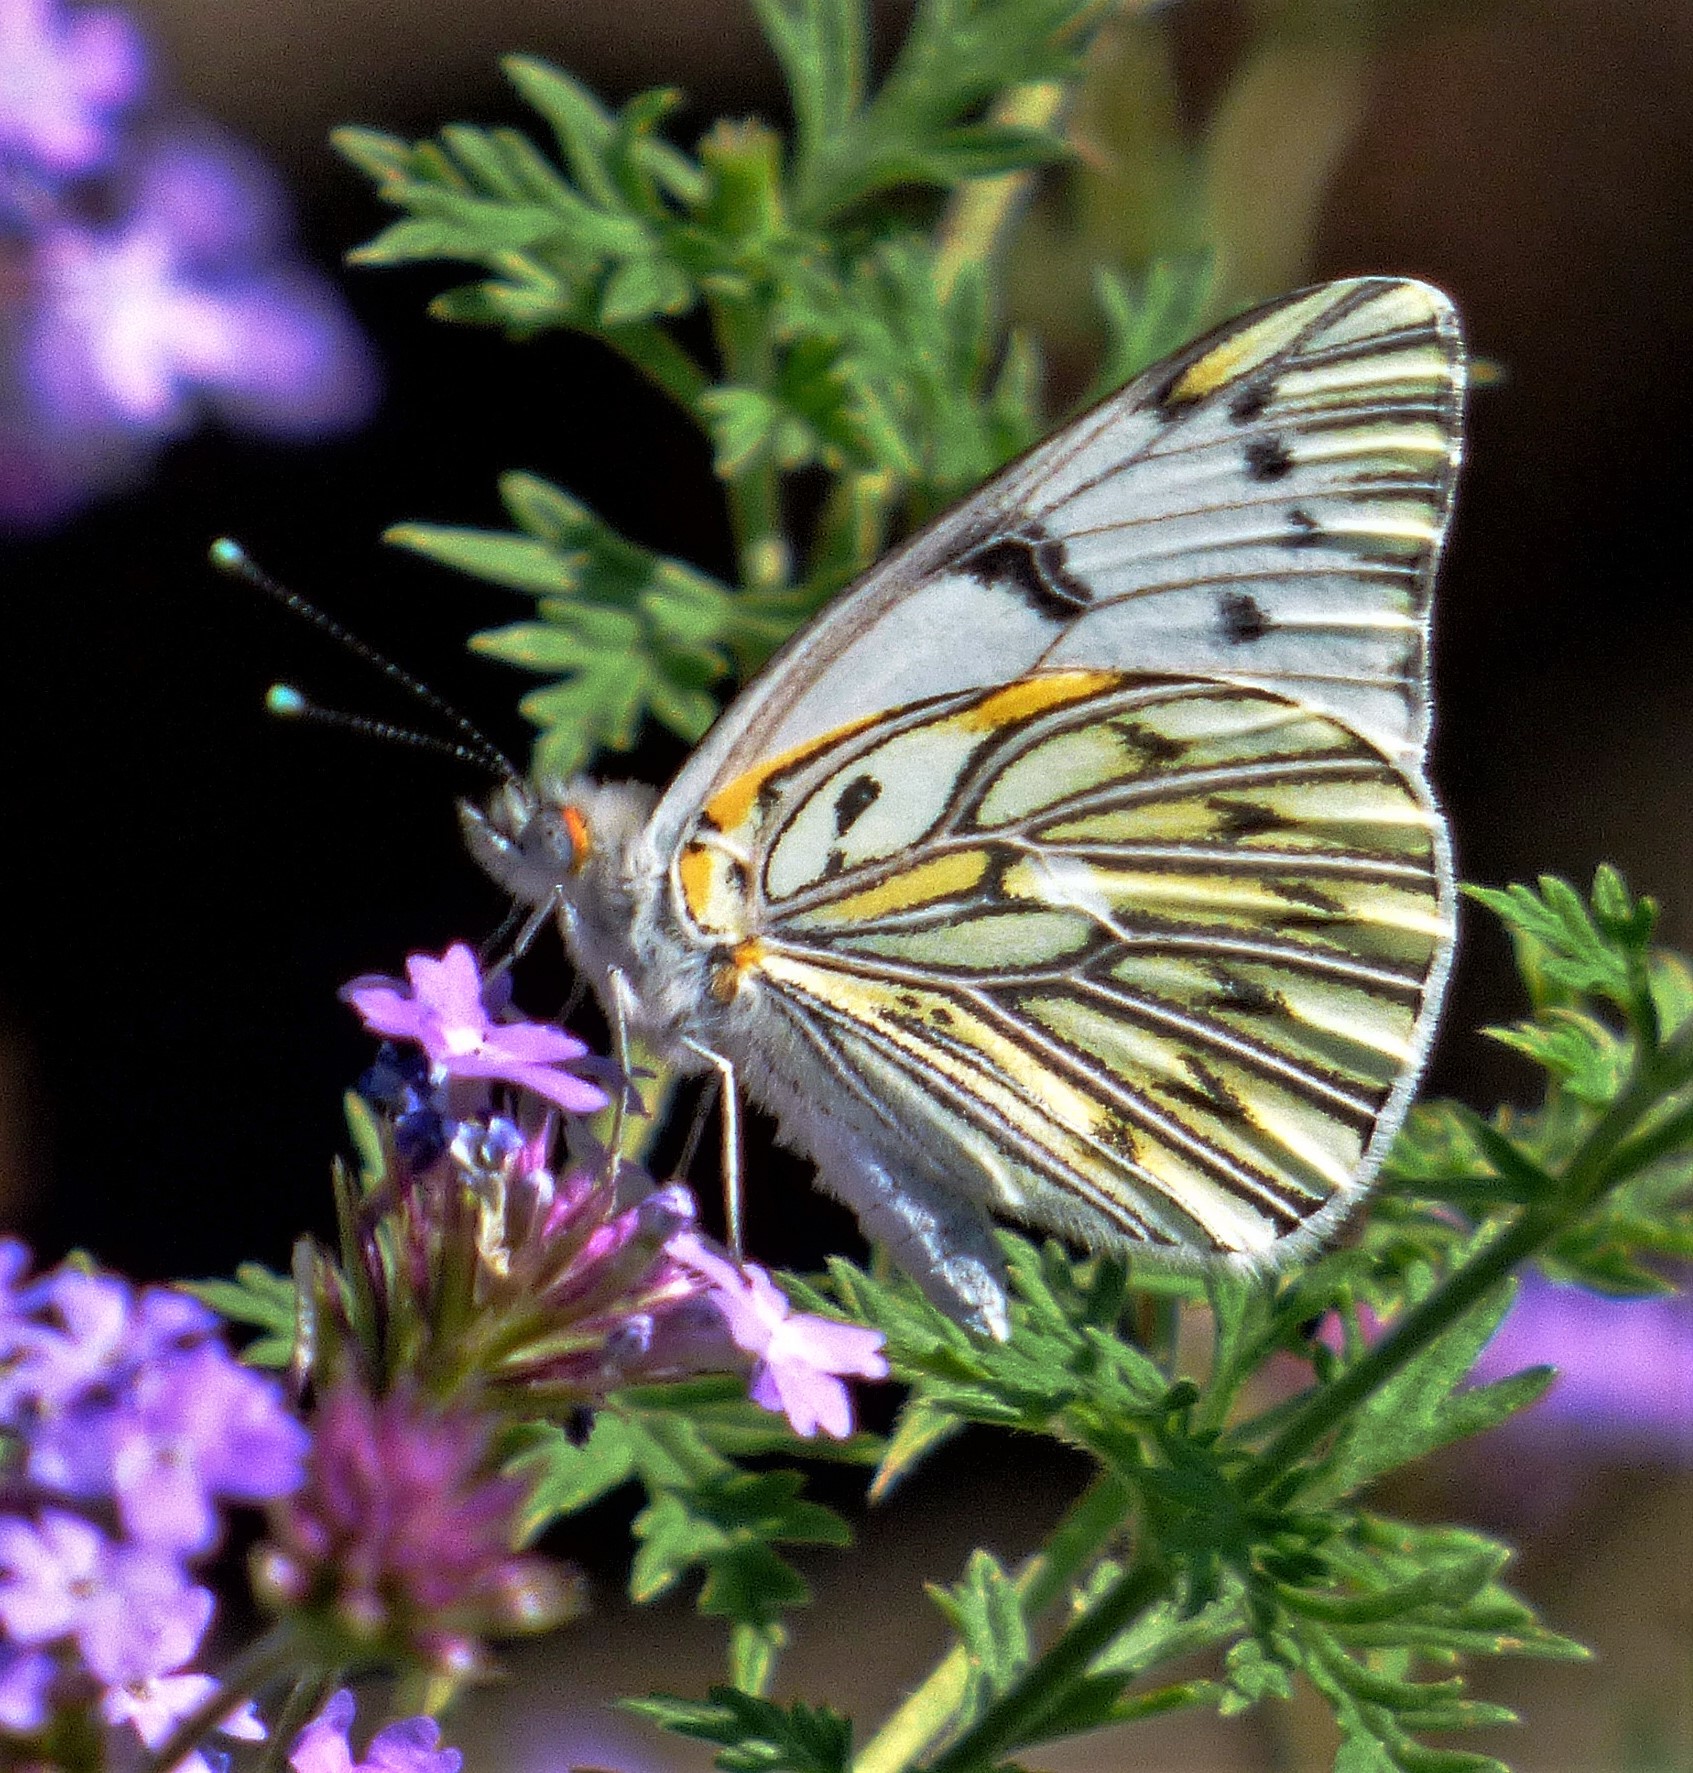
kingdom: Animalia
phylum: Arthropoda
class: Insecta
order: Lepidoptera
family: Pieridae
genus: Tatochila
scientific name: Tatochila autodice
